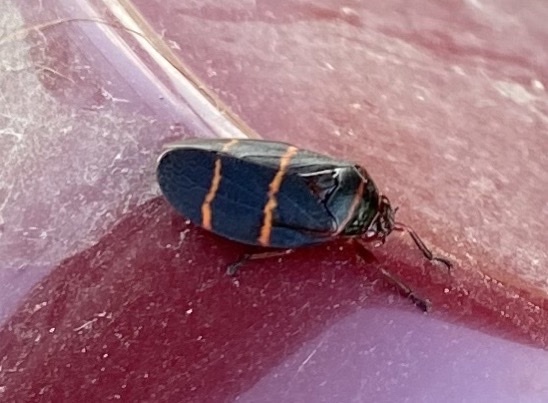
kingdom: Animalia
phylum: Arthropoda
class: Insecta
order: Hemiptera
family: Cercopidae
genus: Prosapia
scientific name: Prosapia bicincta
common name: Twolined spittlebug
